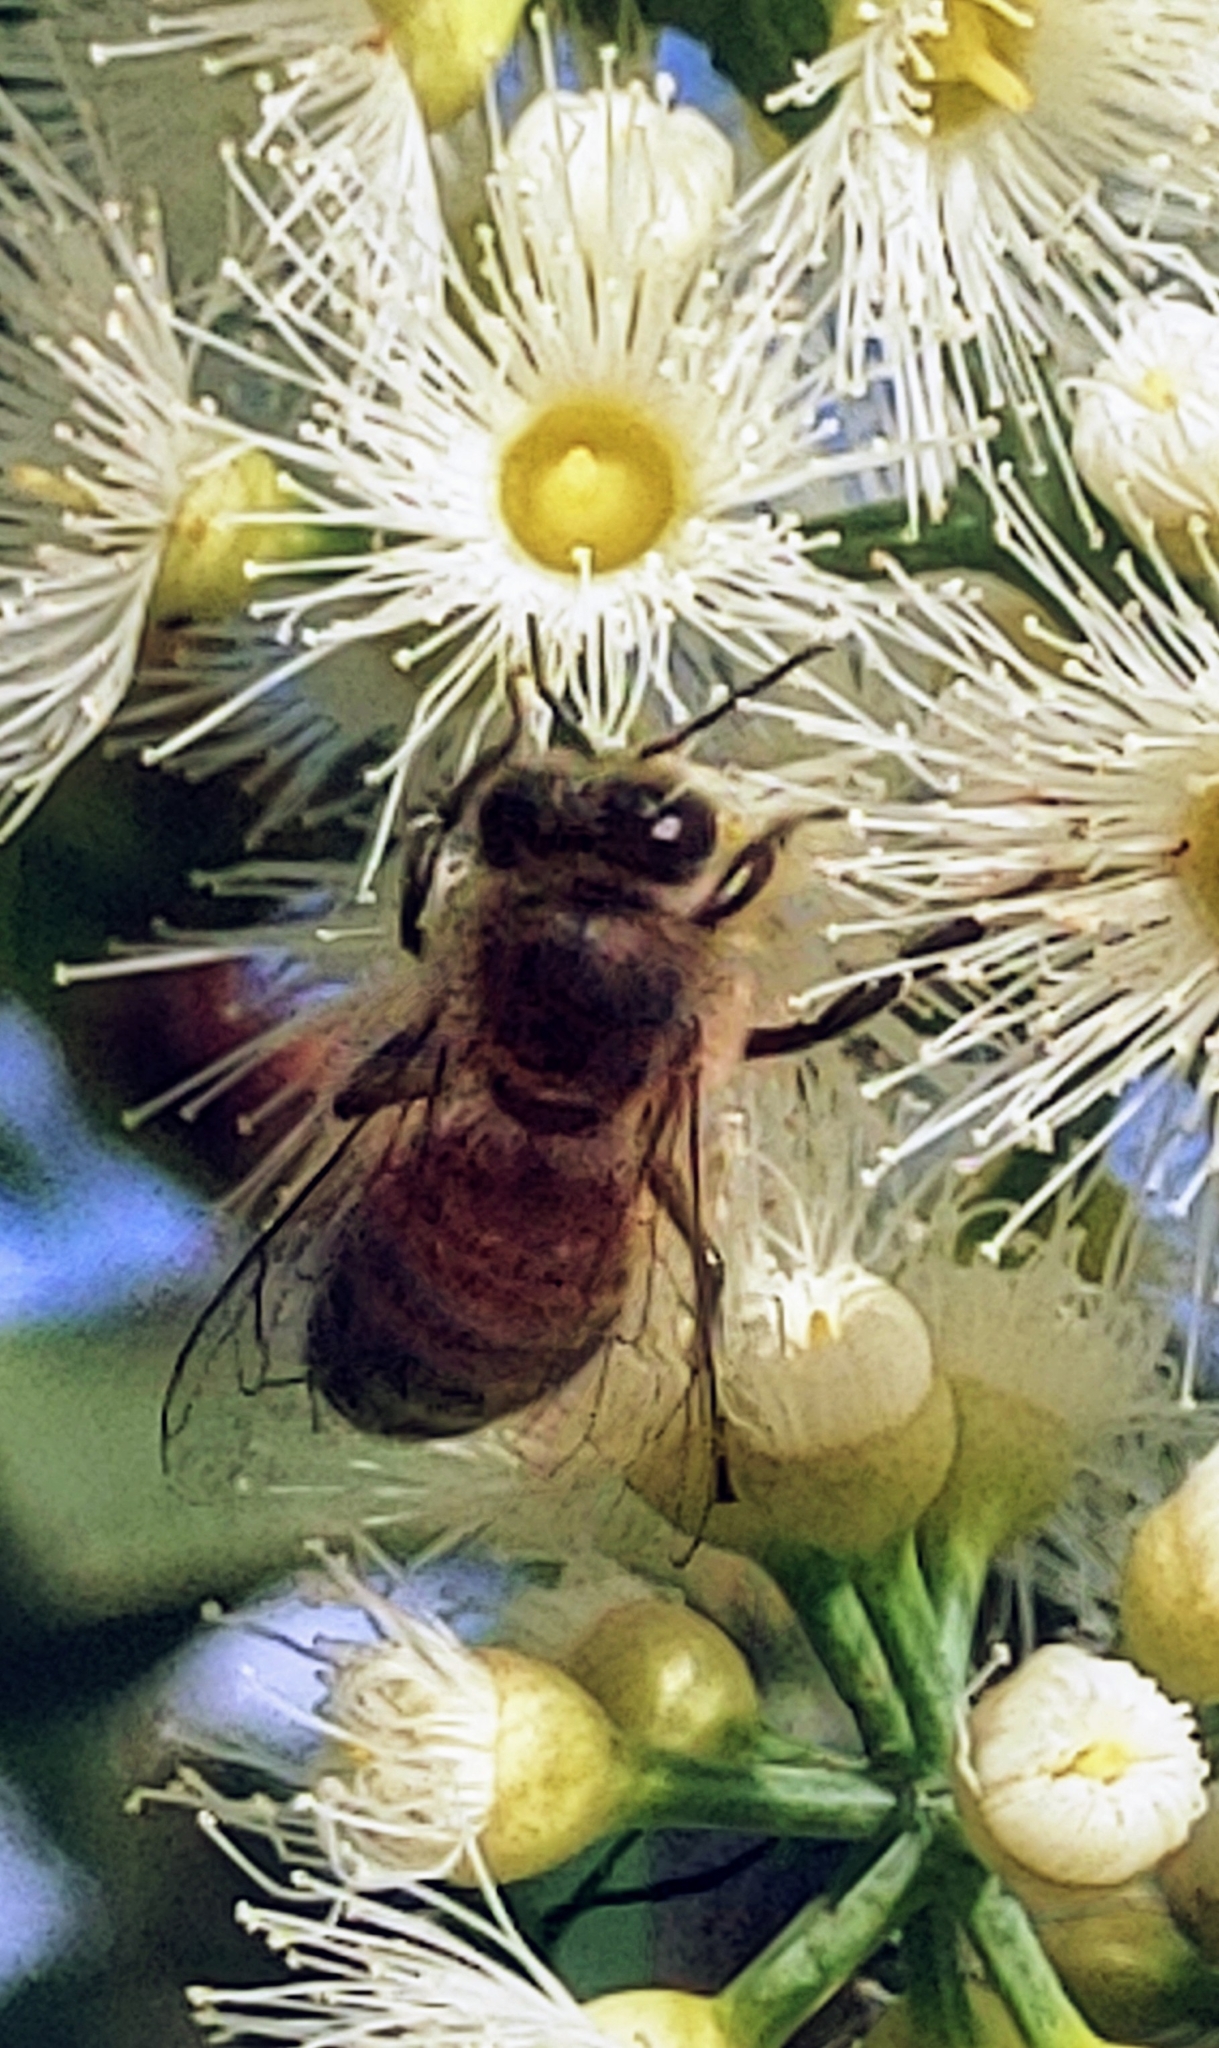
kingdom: Animalia
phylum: Arthropoda
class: Insecta
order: Hymenoptera
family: Apidae
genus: Apis
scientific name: Apis mellifera
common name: Honey bee
